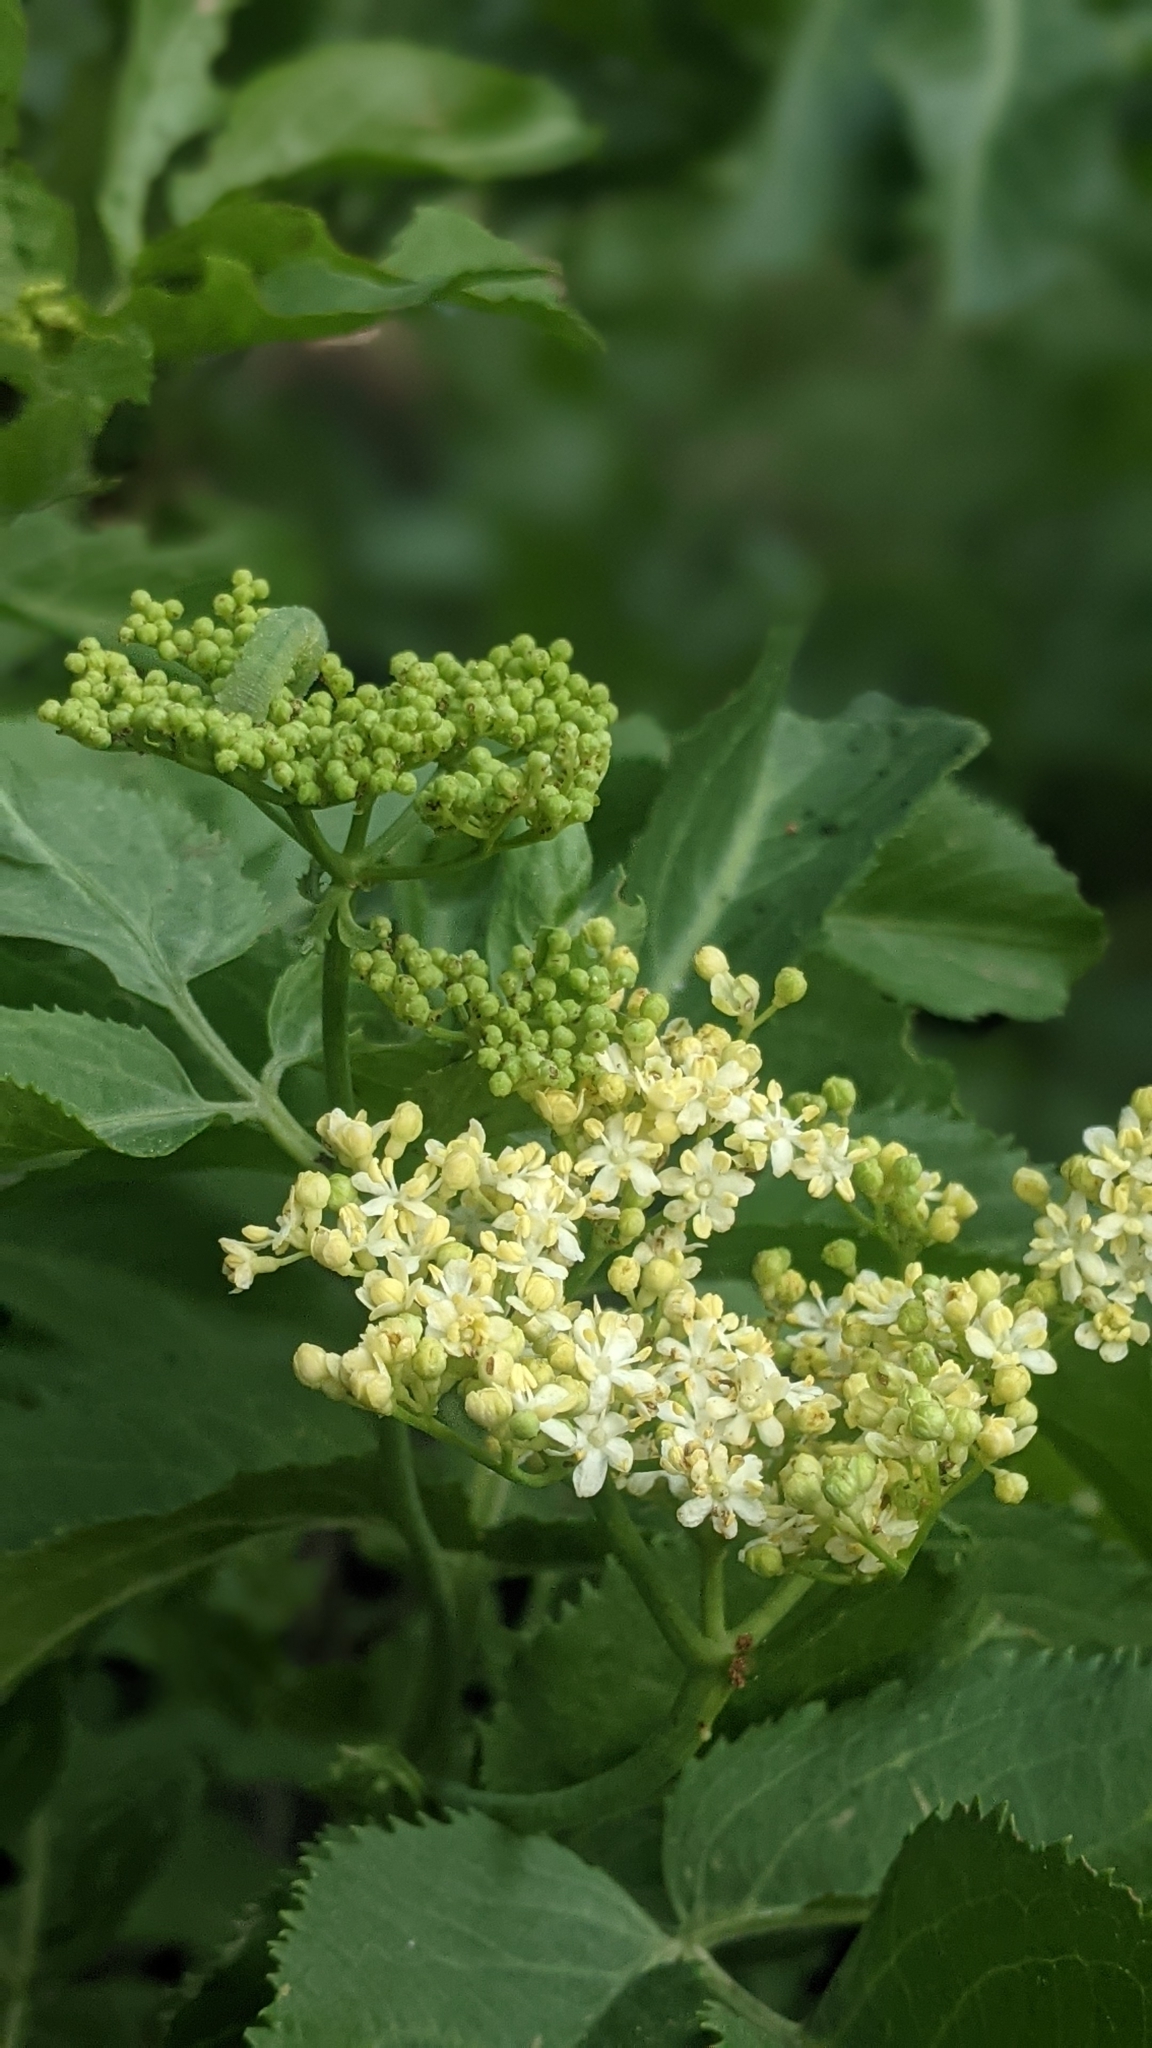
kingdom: Plantae
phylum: Tracheophyta
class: Magnoliopsida
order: Dipsacales
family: Viburnaceae
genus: Sambucus
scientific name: Sambucus cerulea
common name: Blue elder
